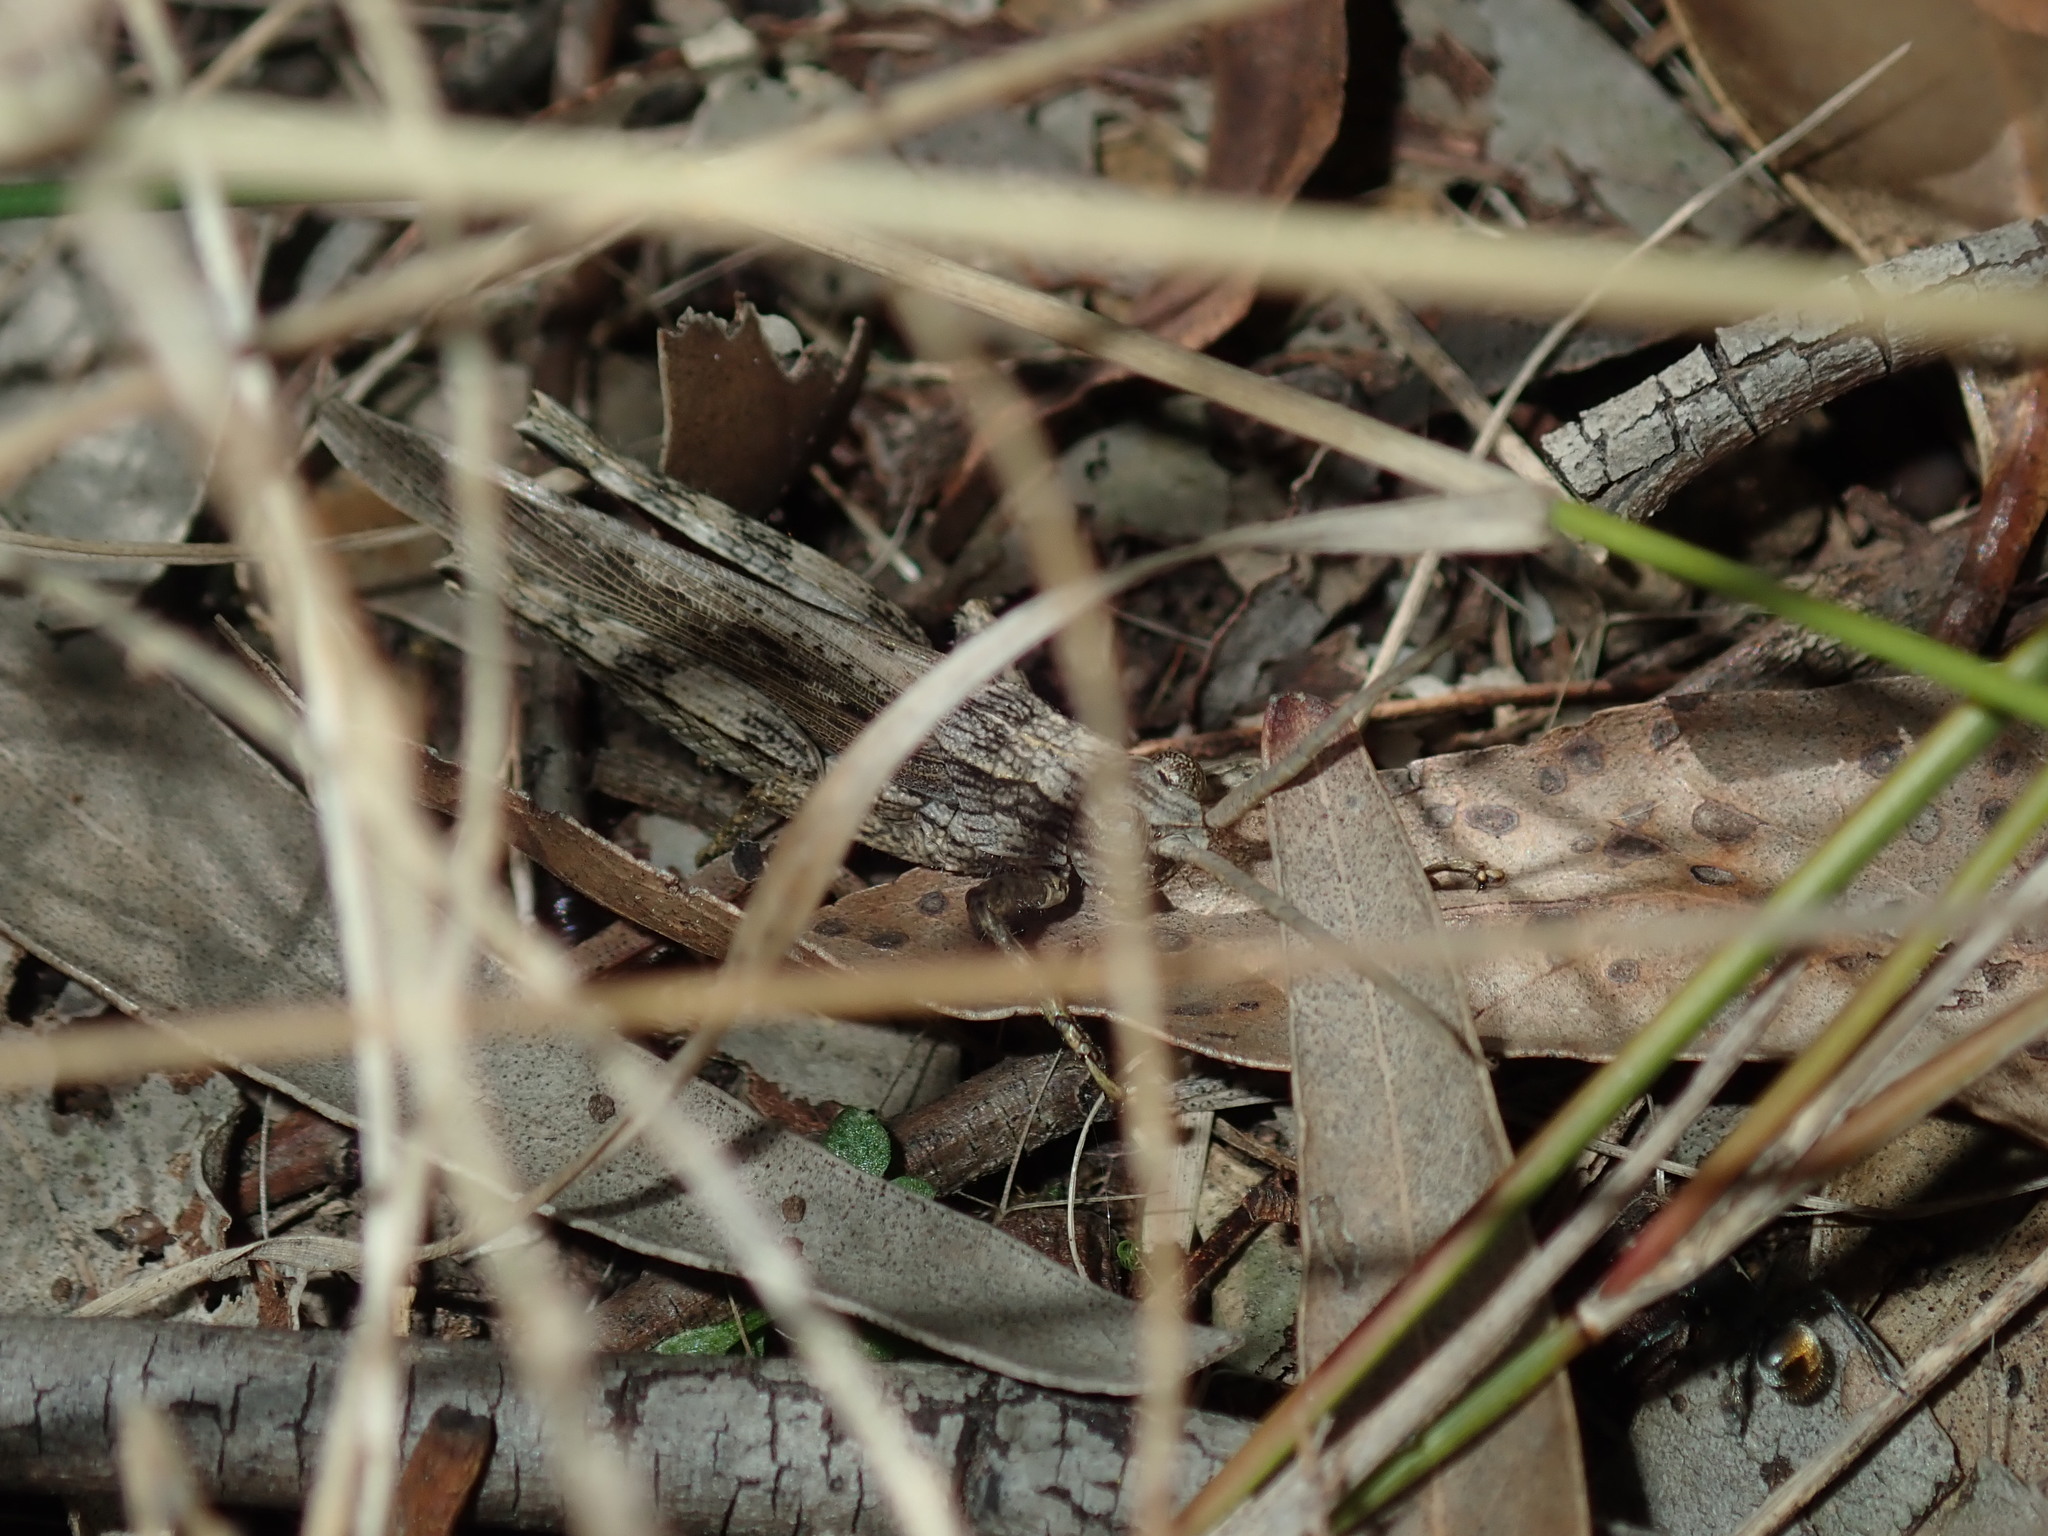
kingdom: Animalia
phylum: Arthropoda
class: Insecta
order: Orthoptera
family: Acrididae
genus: Coryphistes
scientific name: Coryphistes ruricola
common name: Bark-mimicking grasshopper
